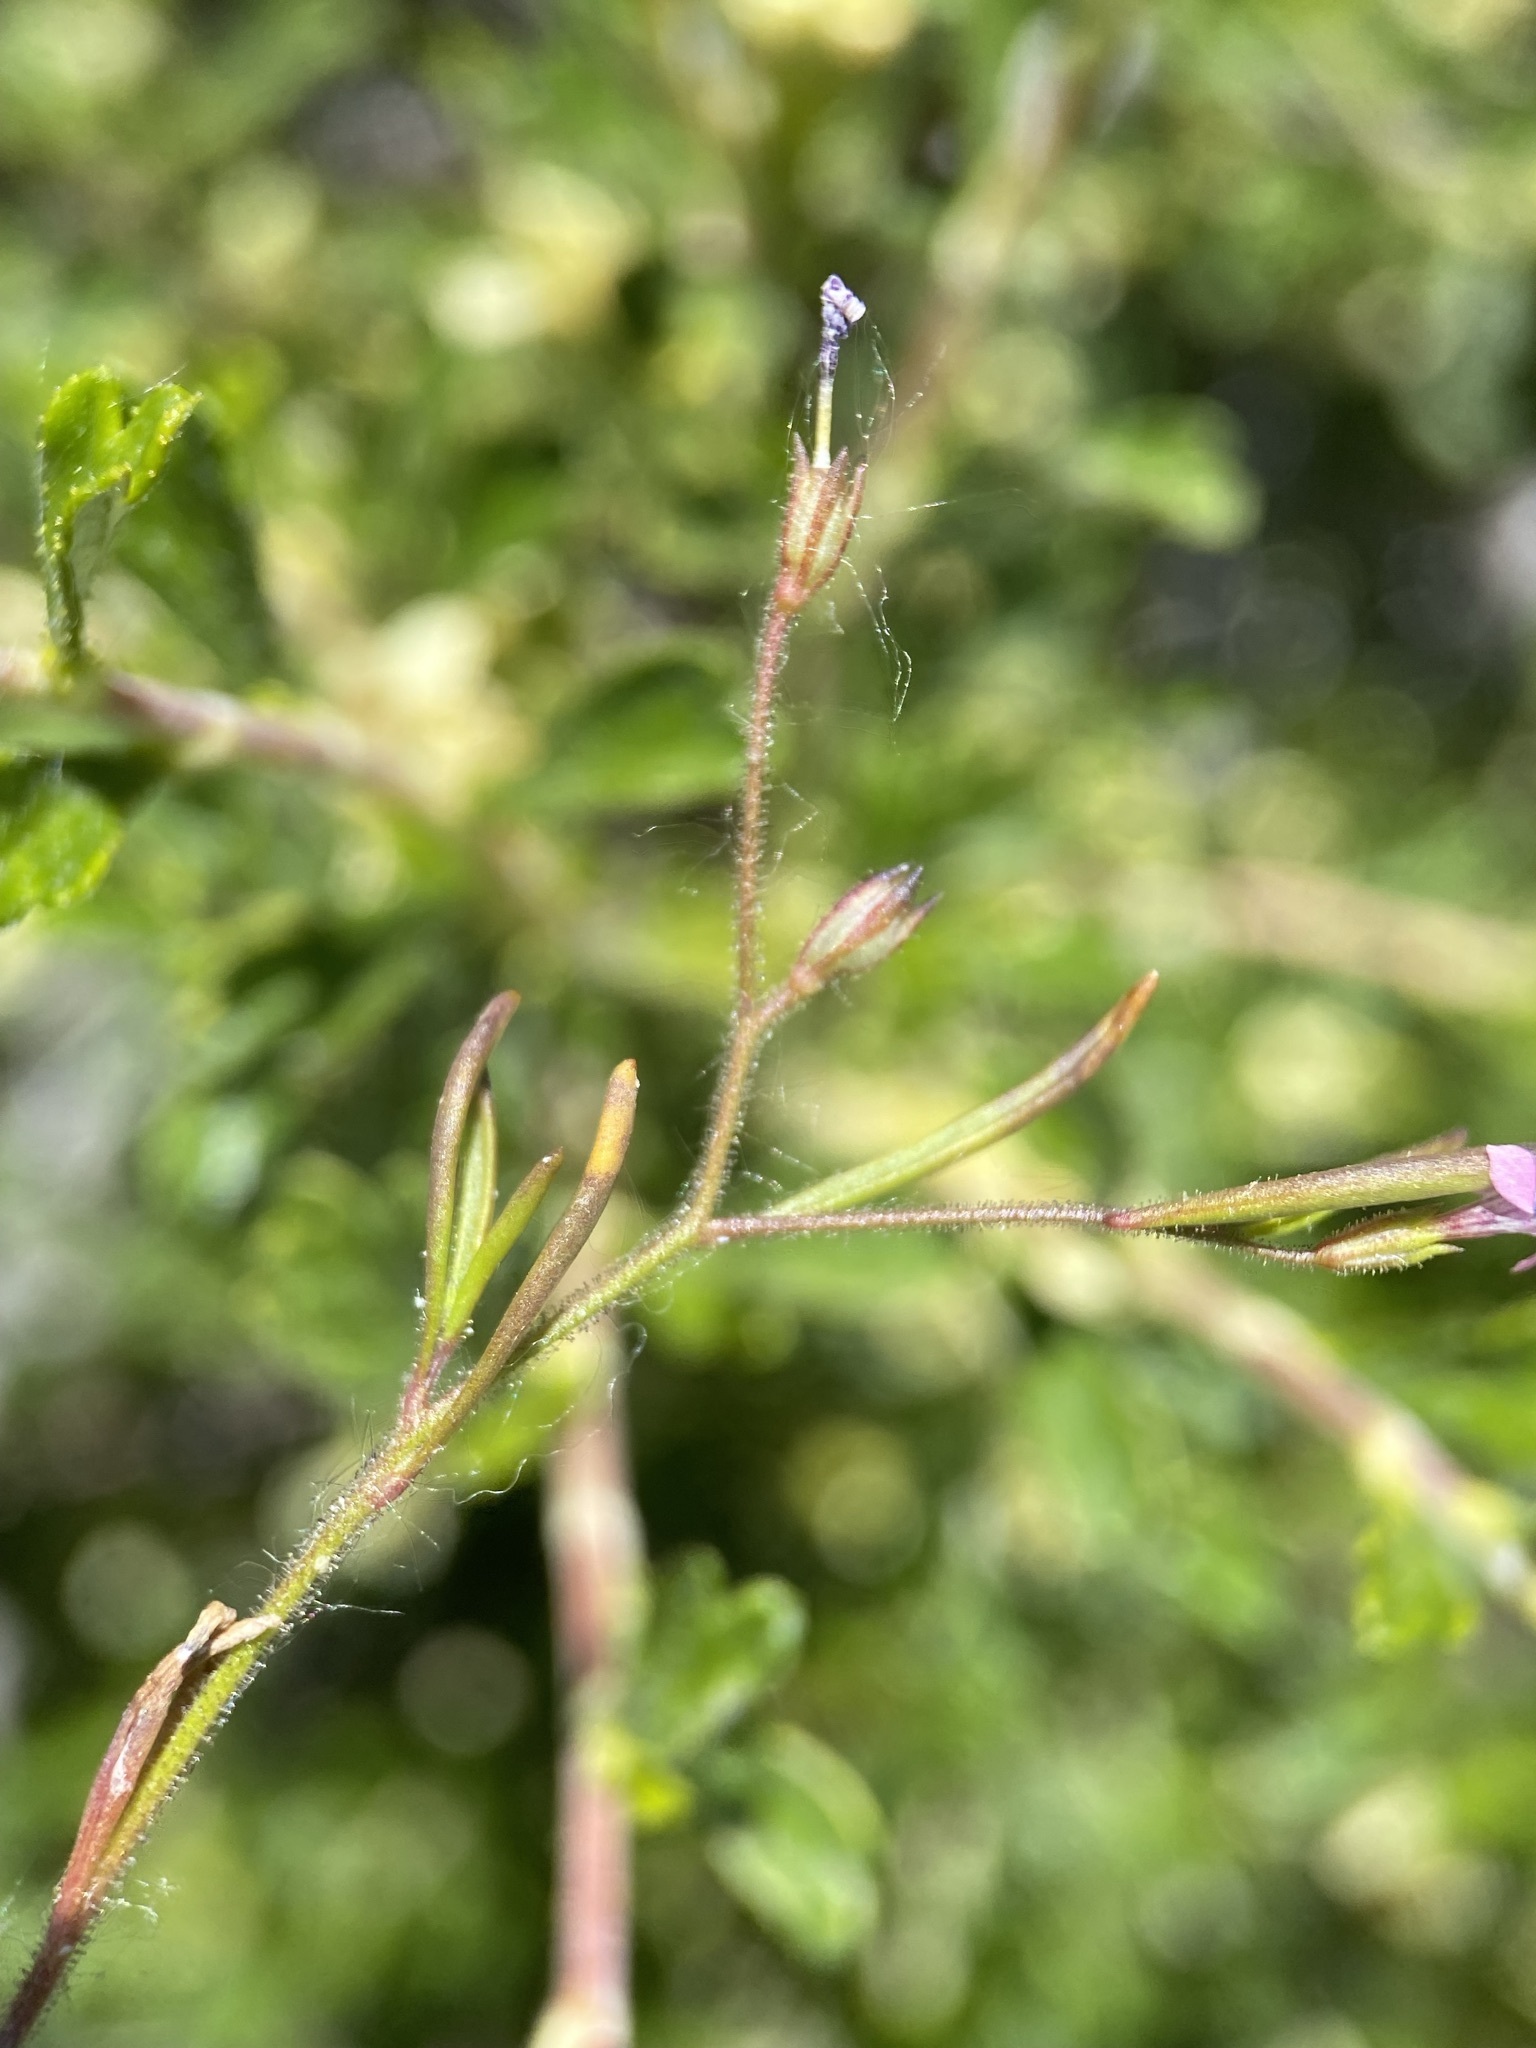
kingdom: Plantae
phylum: Tracheophyta
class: Magnoliopsida
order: Ericales
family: Polemoniaceae
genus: Navarretia
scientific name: Navarretia sinistra
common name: Alva day's pincushionplant
